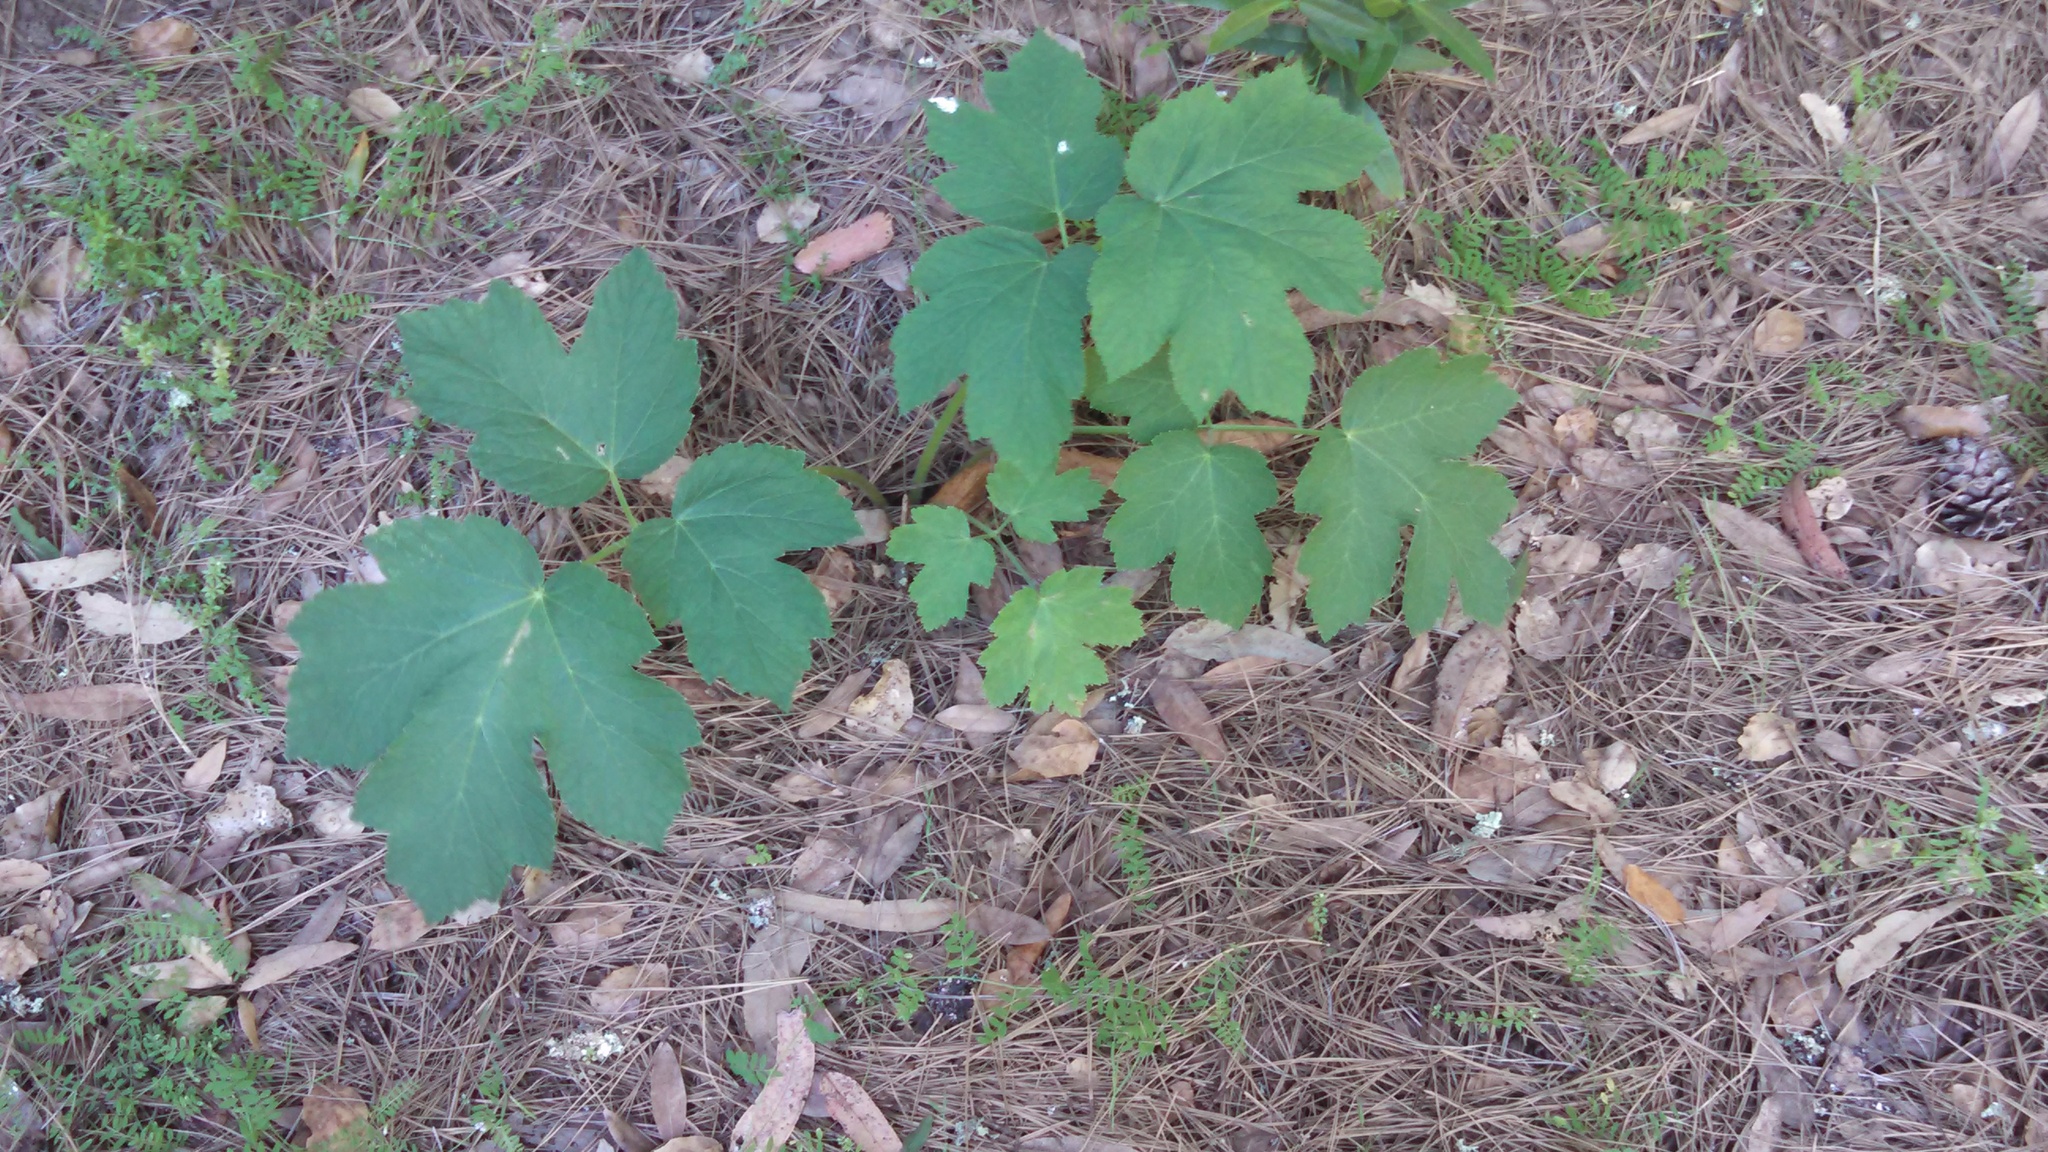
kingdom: Plantae
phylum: Tracheophyta
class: Magnoliopsida
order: Apiales
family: Apiaceae
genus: Heracleum
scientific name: Heracleum maximum
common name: American cow parsnip
